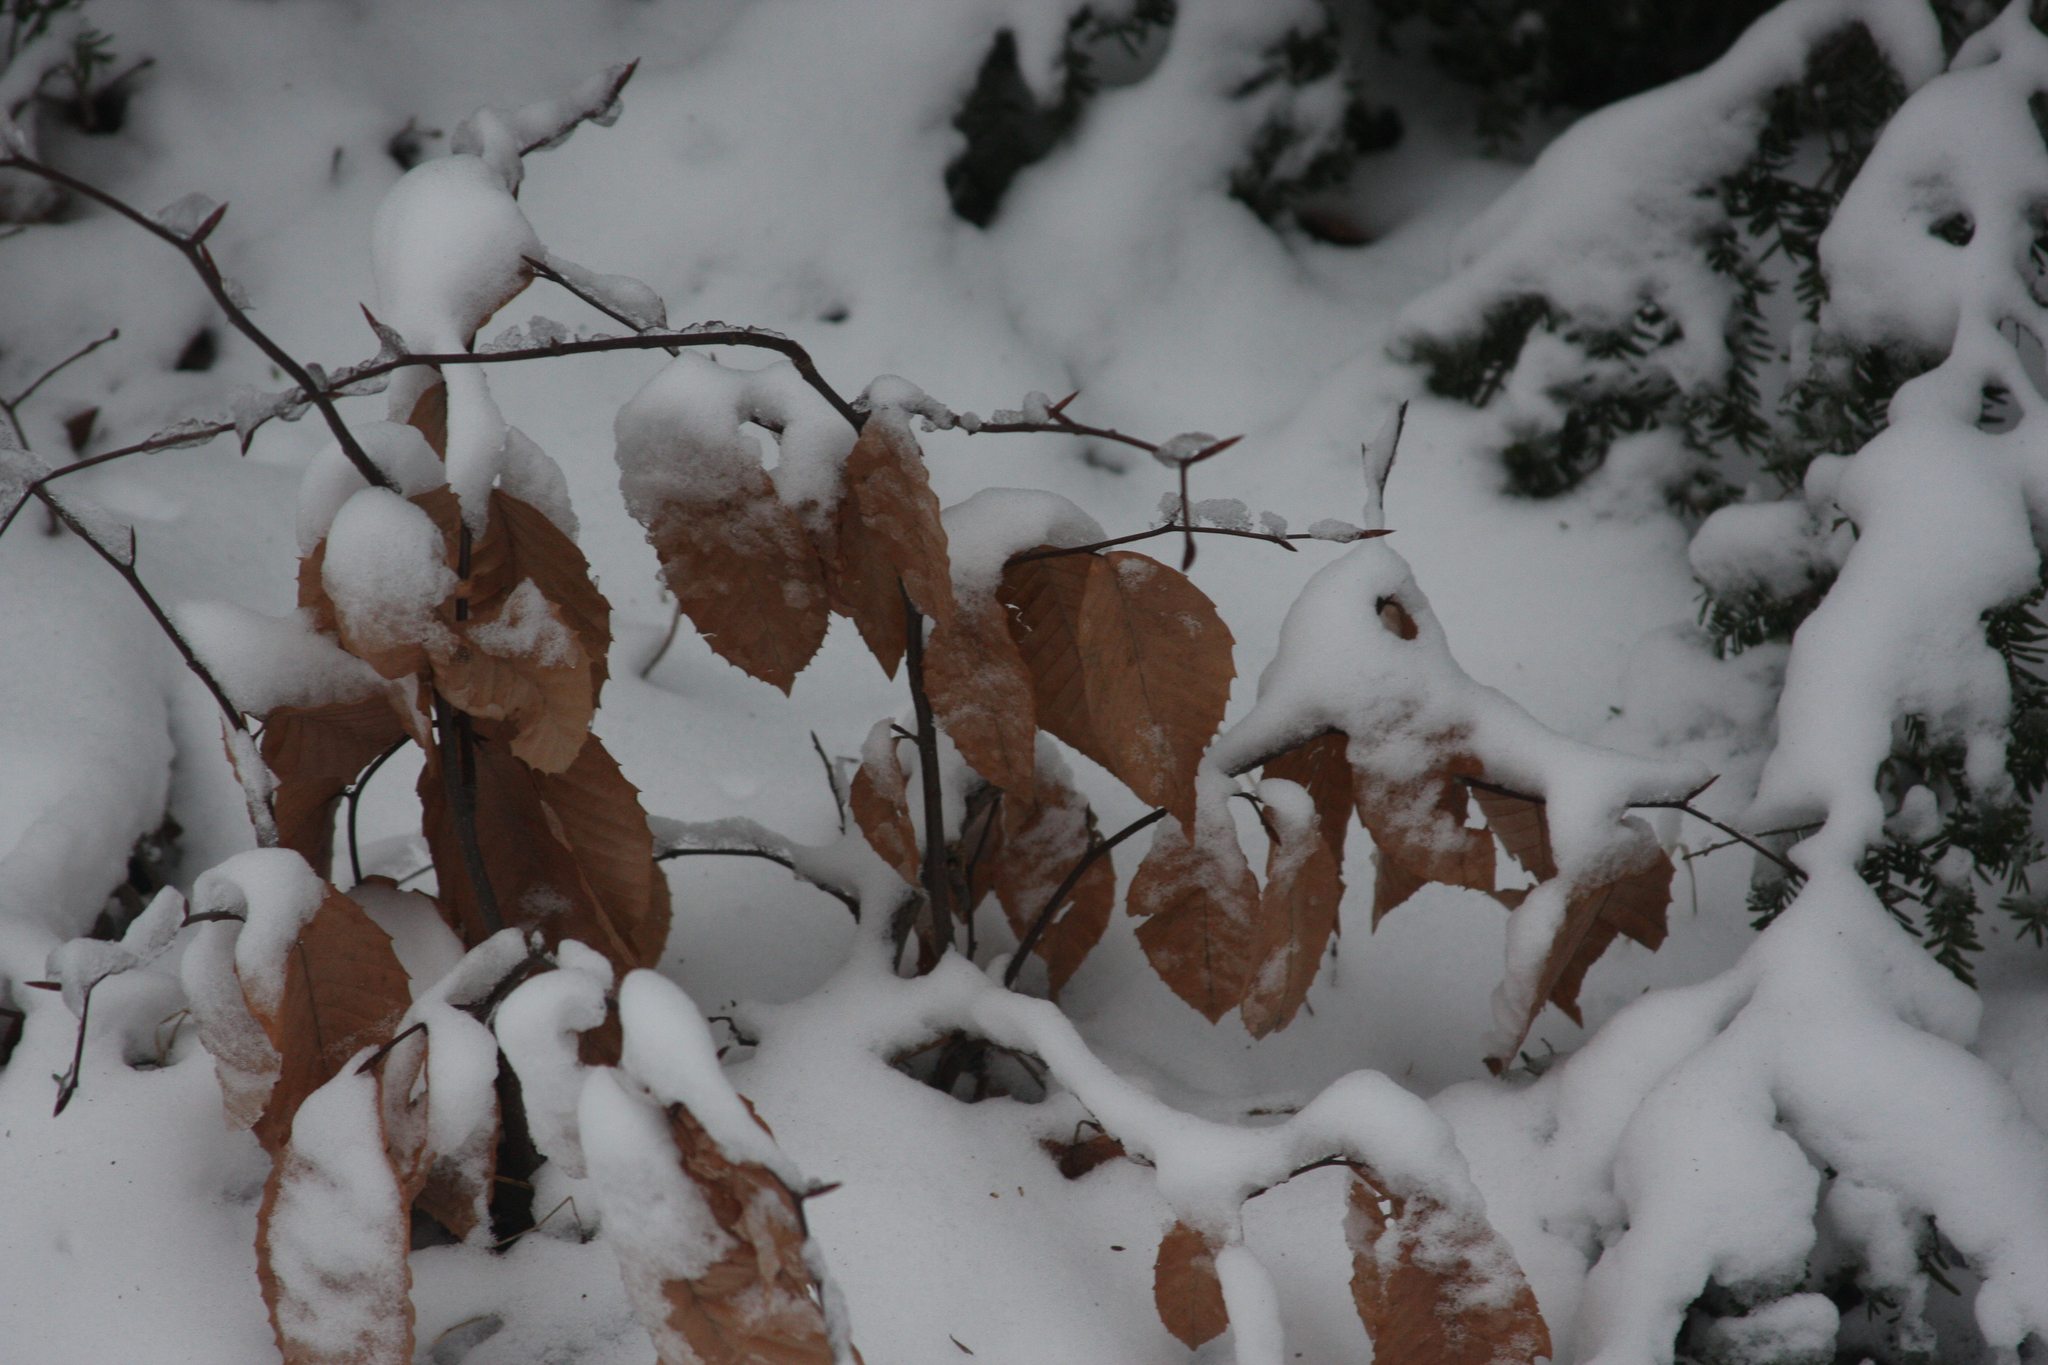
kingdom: Plantae
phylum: Tracheophyta
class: Magnoliopsida
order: Fagales
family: Fagaceae
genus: Fagus
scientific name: Fagus grandifolia
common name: American beech
